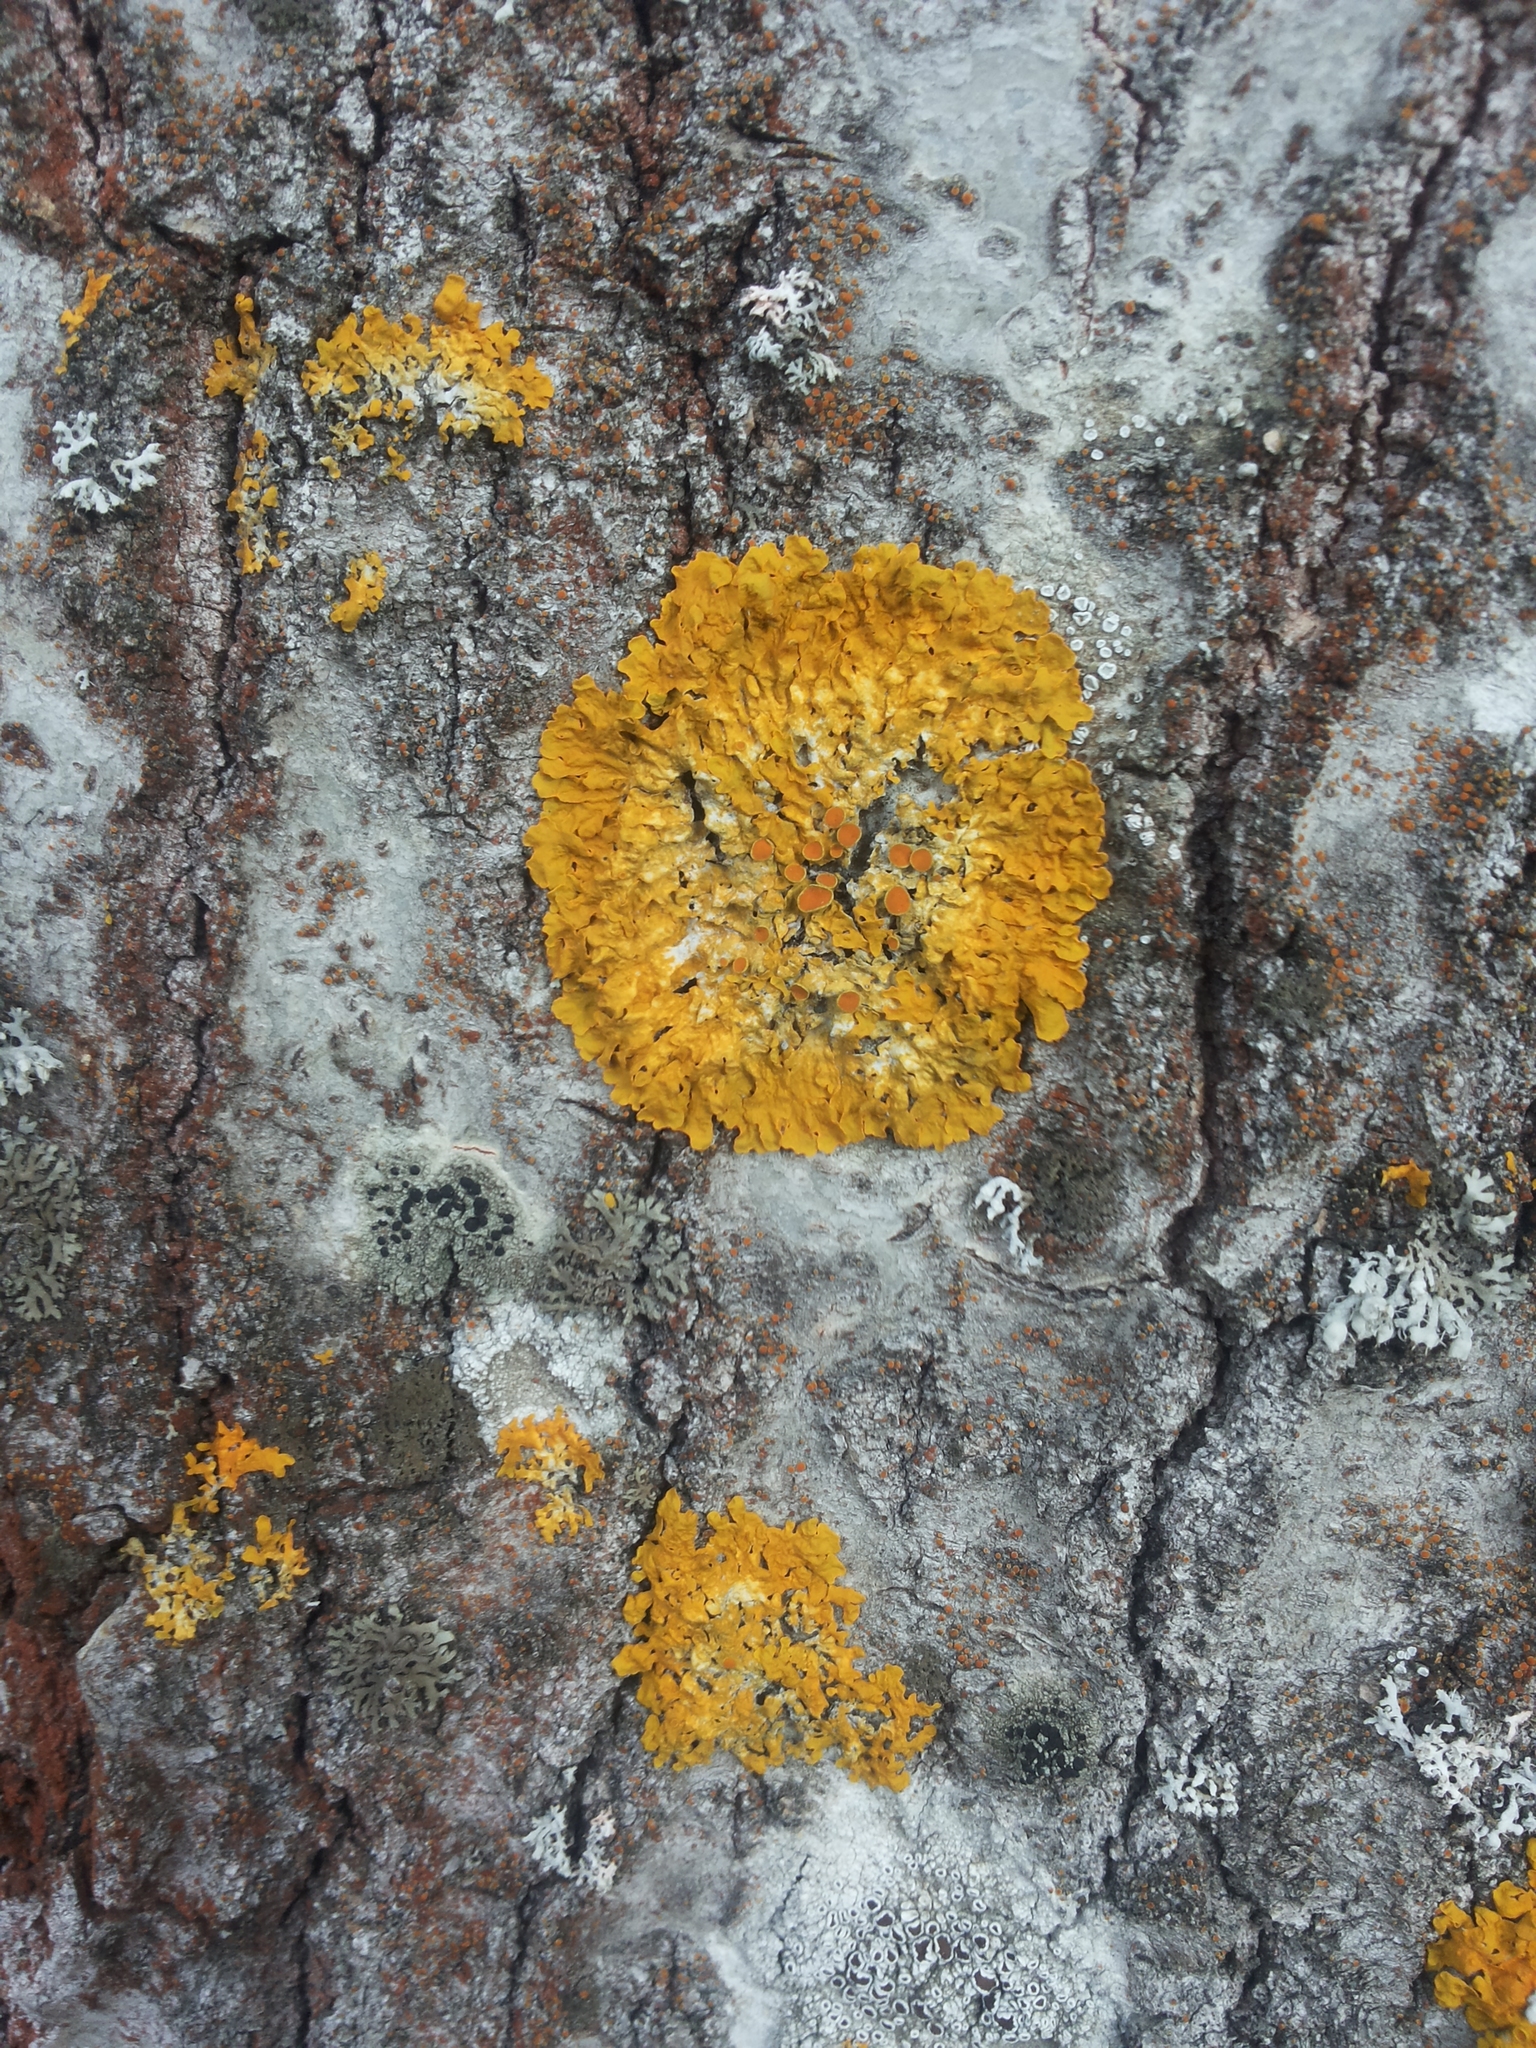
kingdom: Fungi
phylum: Ascomycota
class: Lecanoromycetes
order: Teloschistales
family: Teloschistaceae
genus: Xanthoria
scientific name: Xanthoria parietina
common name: Common orange lichen
